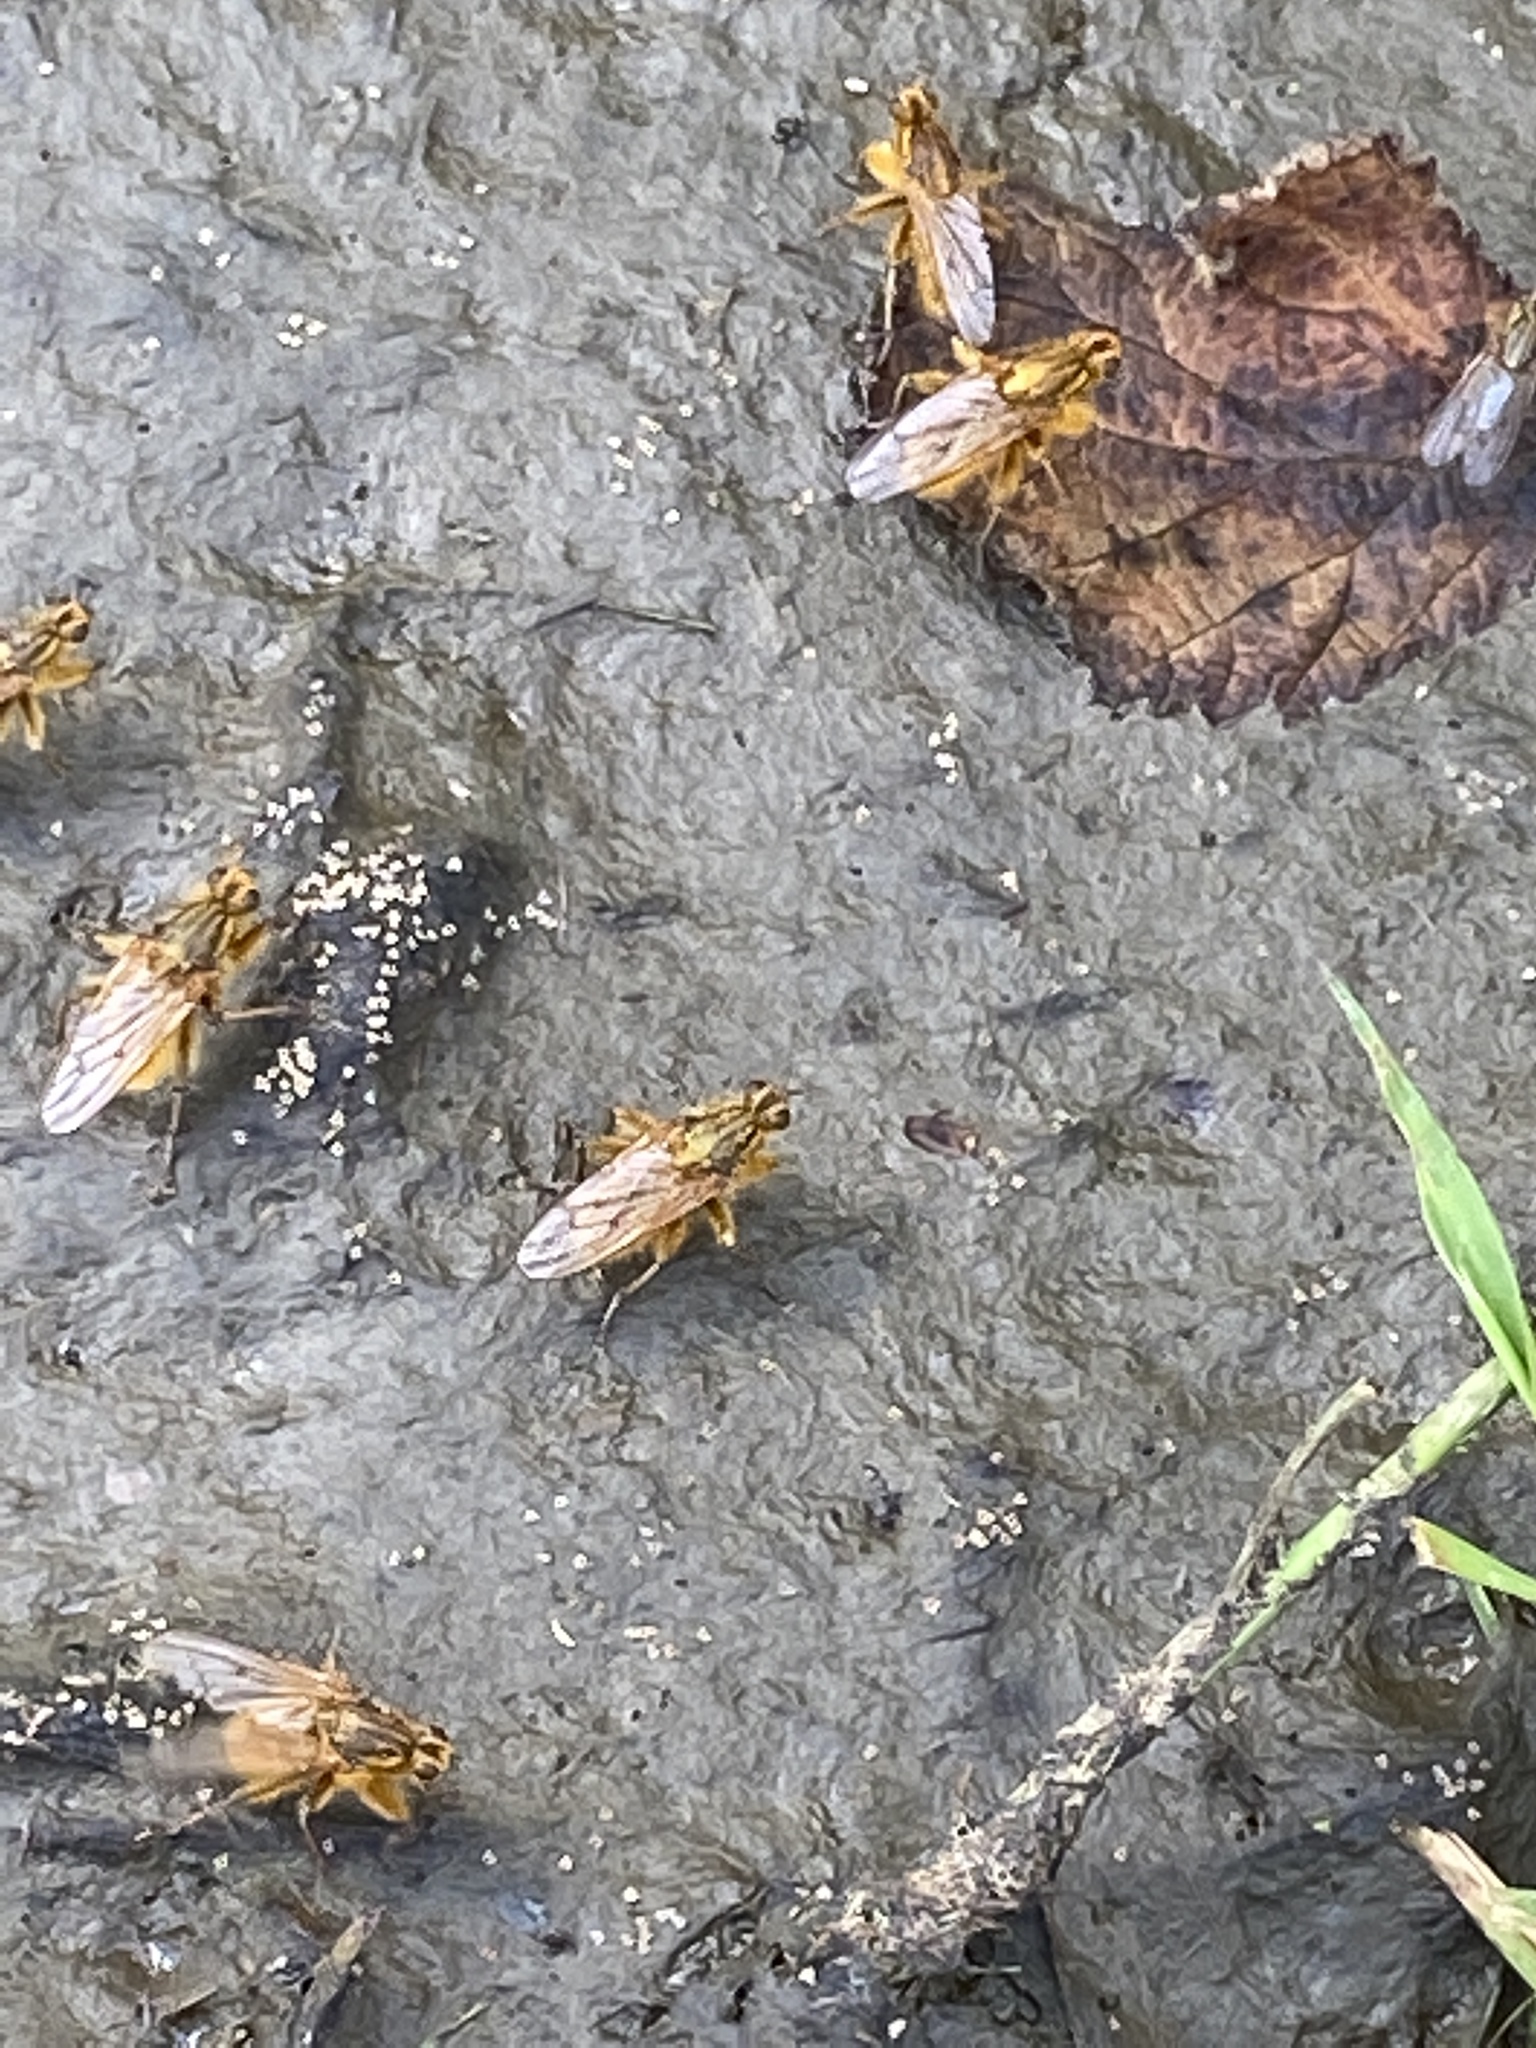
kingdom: Animalia
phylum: Arthropoda
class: Insecta
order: Diptera
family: Scathophagidae
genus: Scathophaga
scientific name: Scathophaga stercoraria
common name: Yellow dung fly
